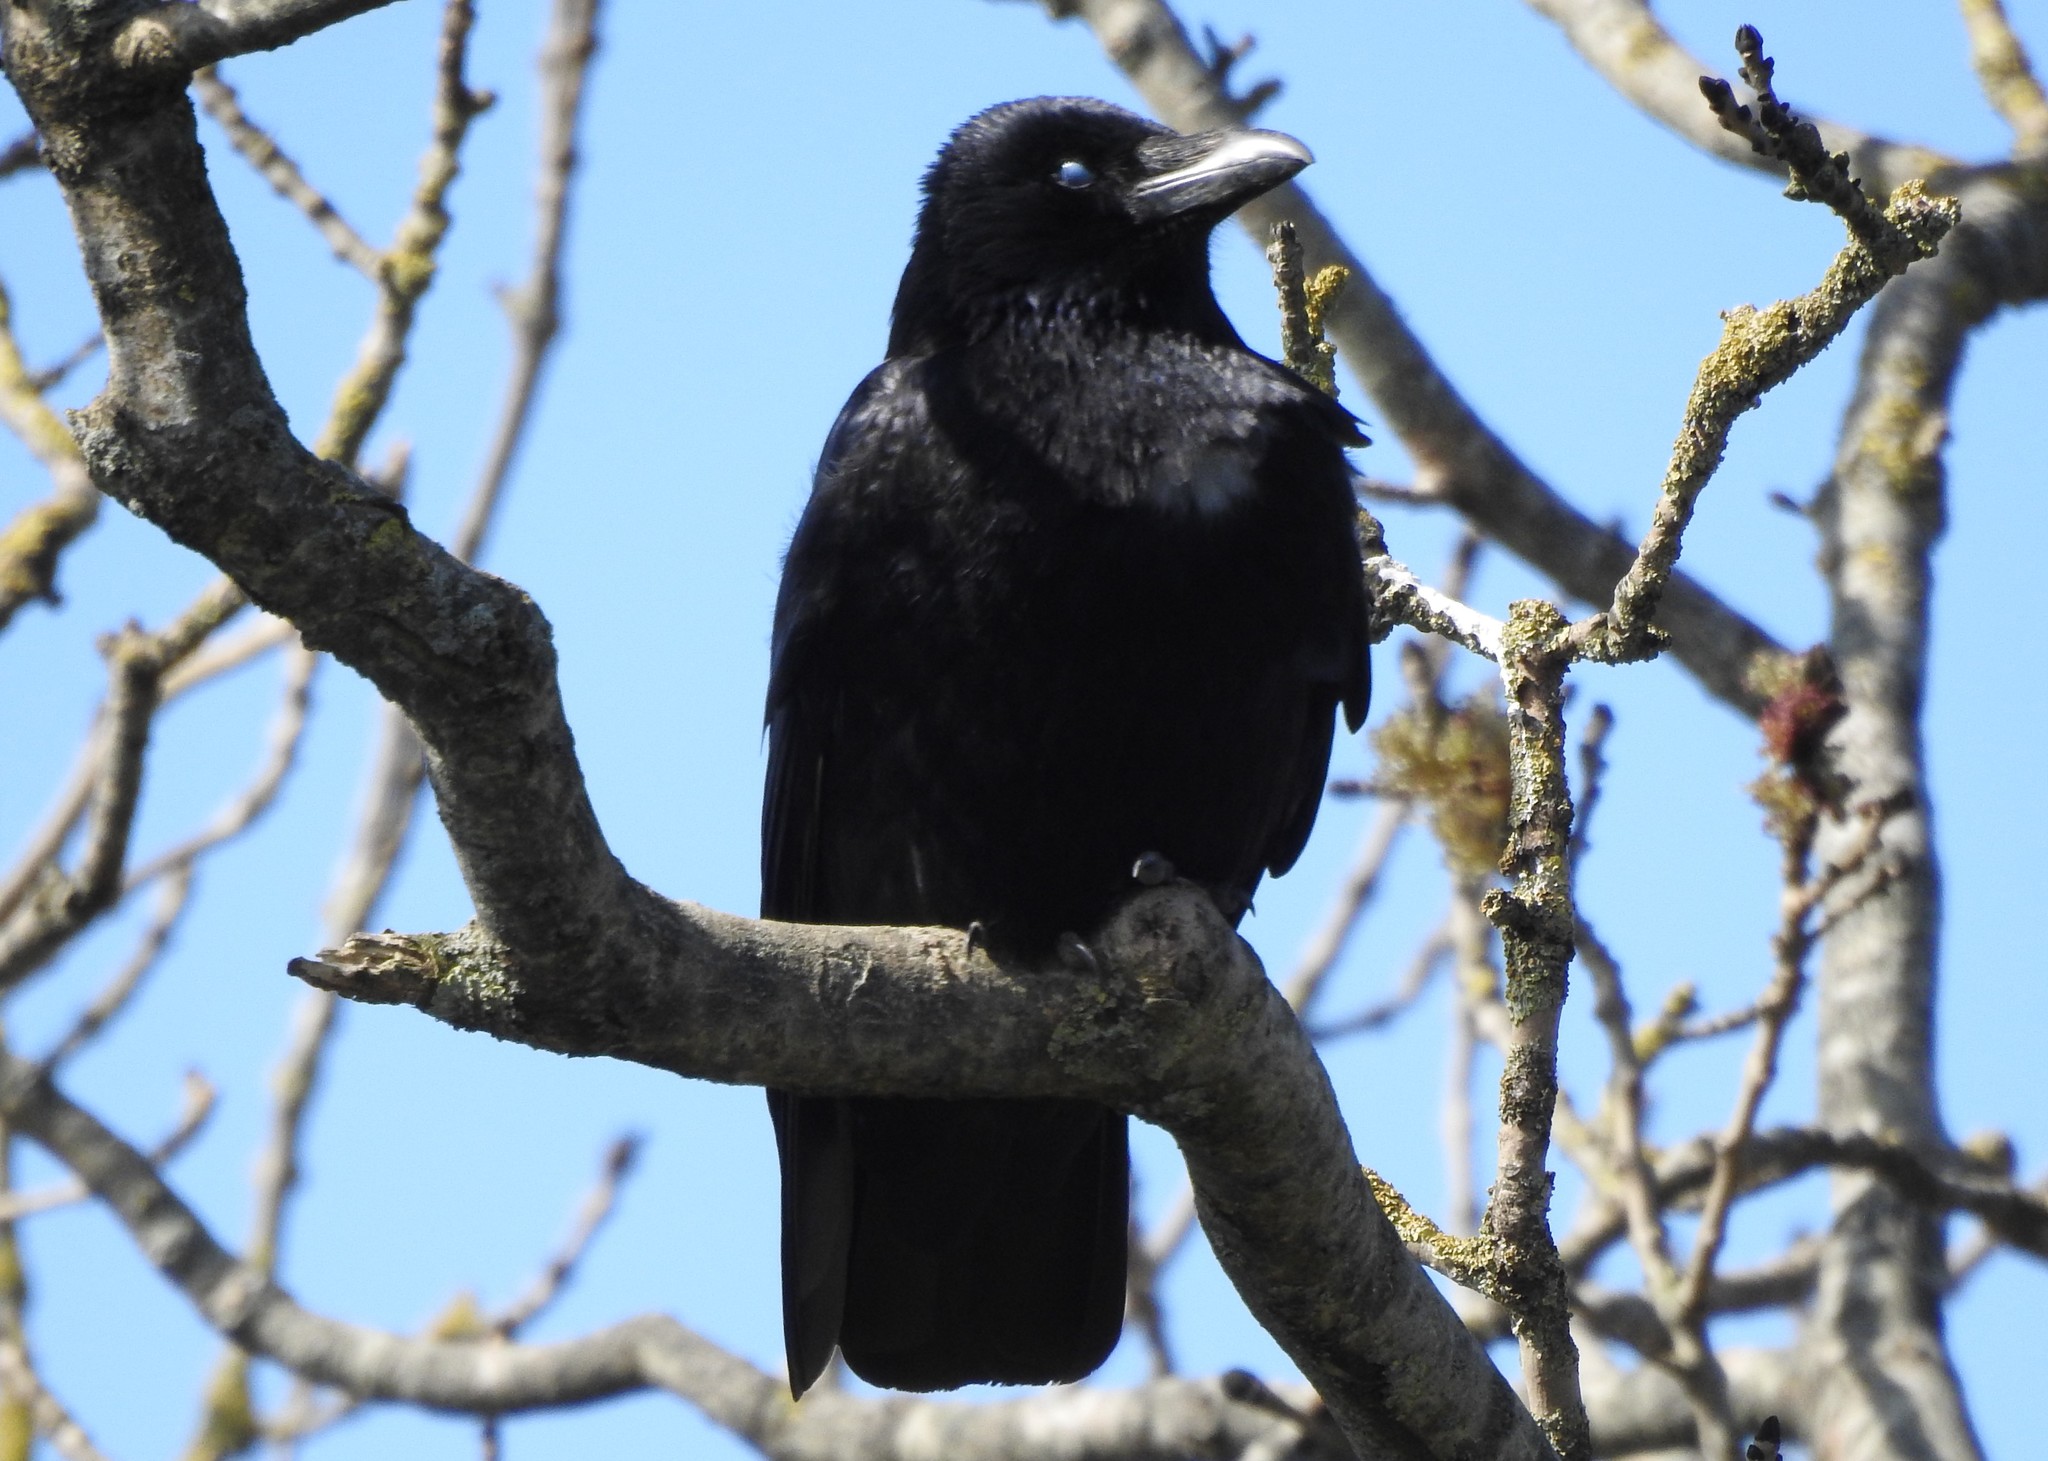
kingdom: Animalia
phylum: Chordata
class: Aves
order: Passeriformes
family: Corvidae
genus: Corvus
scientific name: Corvus corone
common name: Carrion crow
